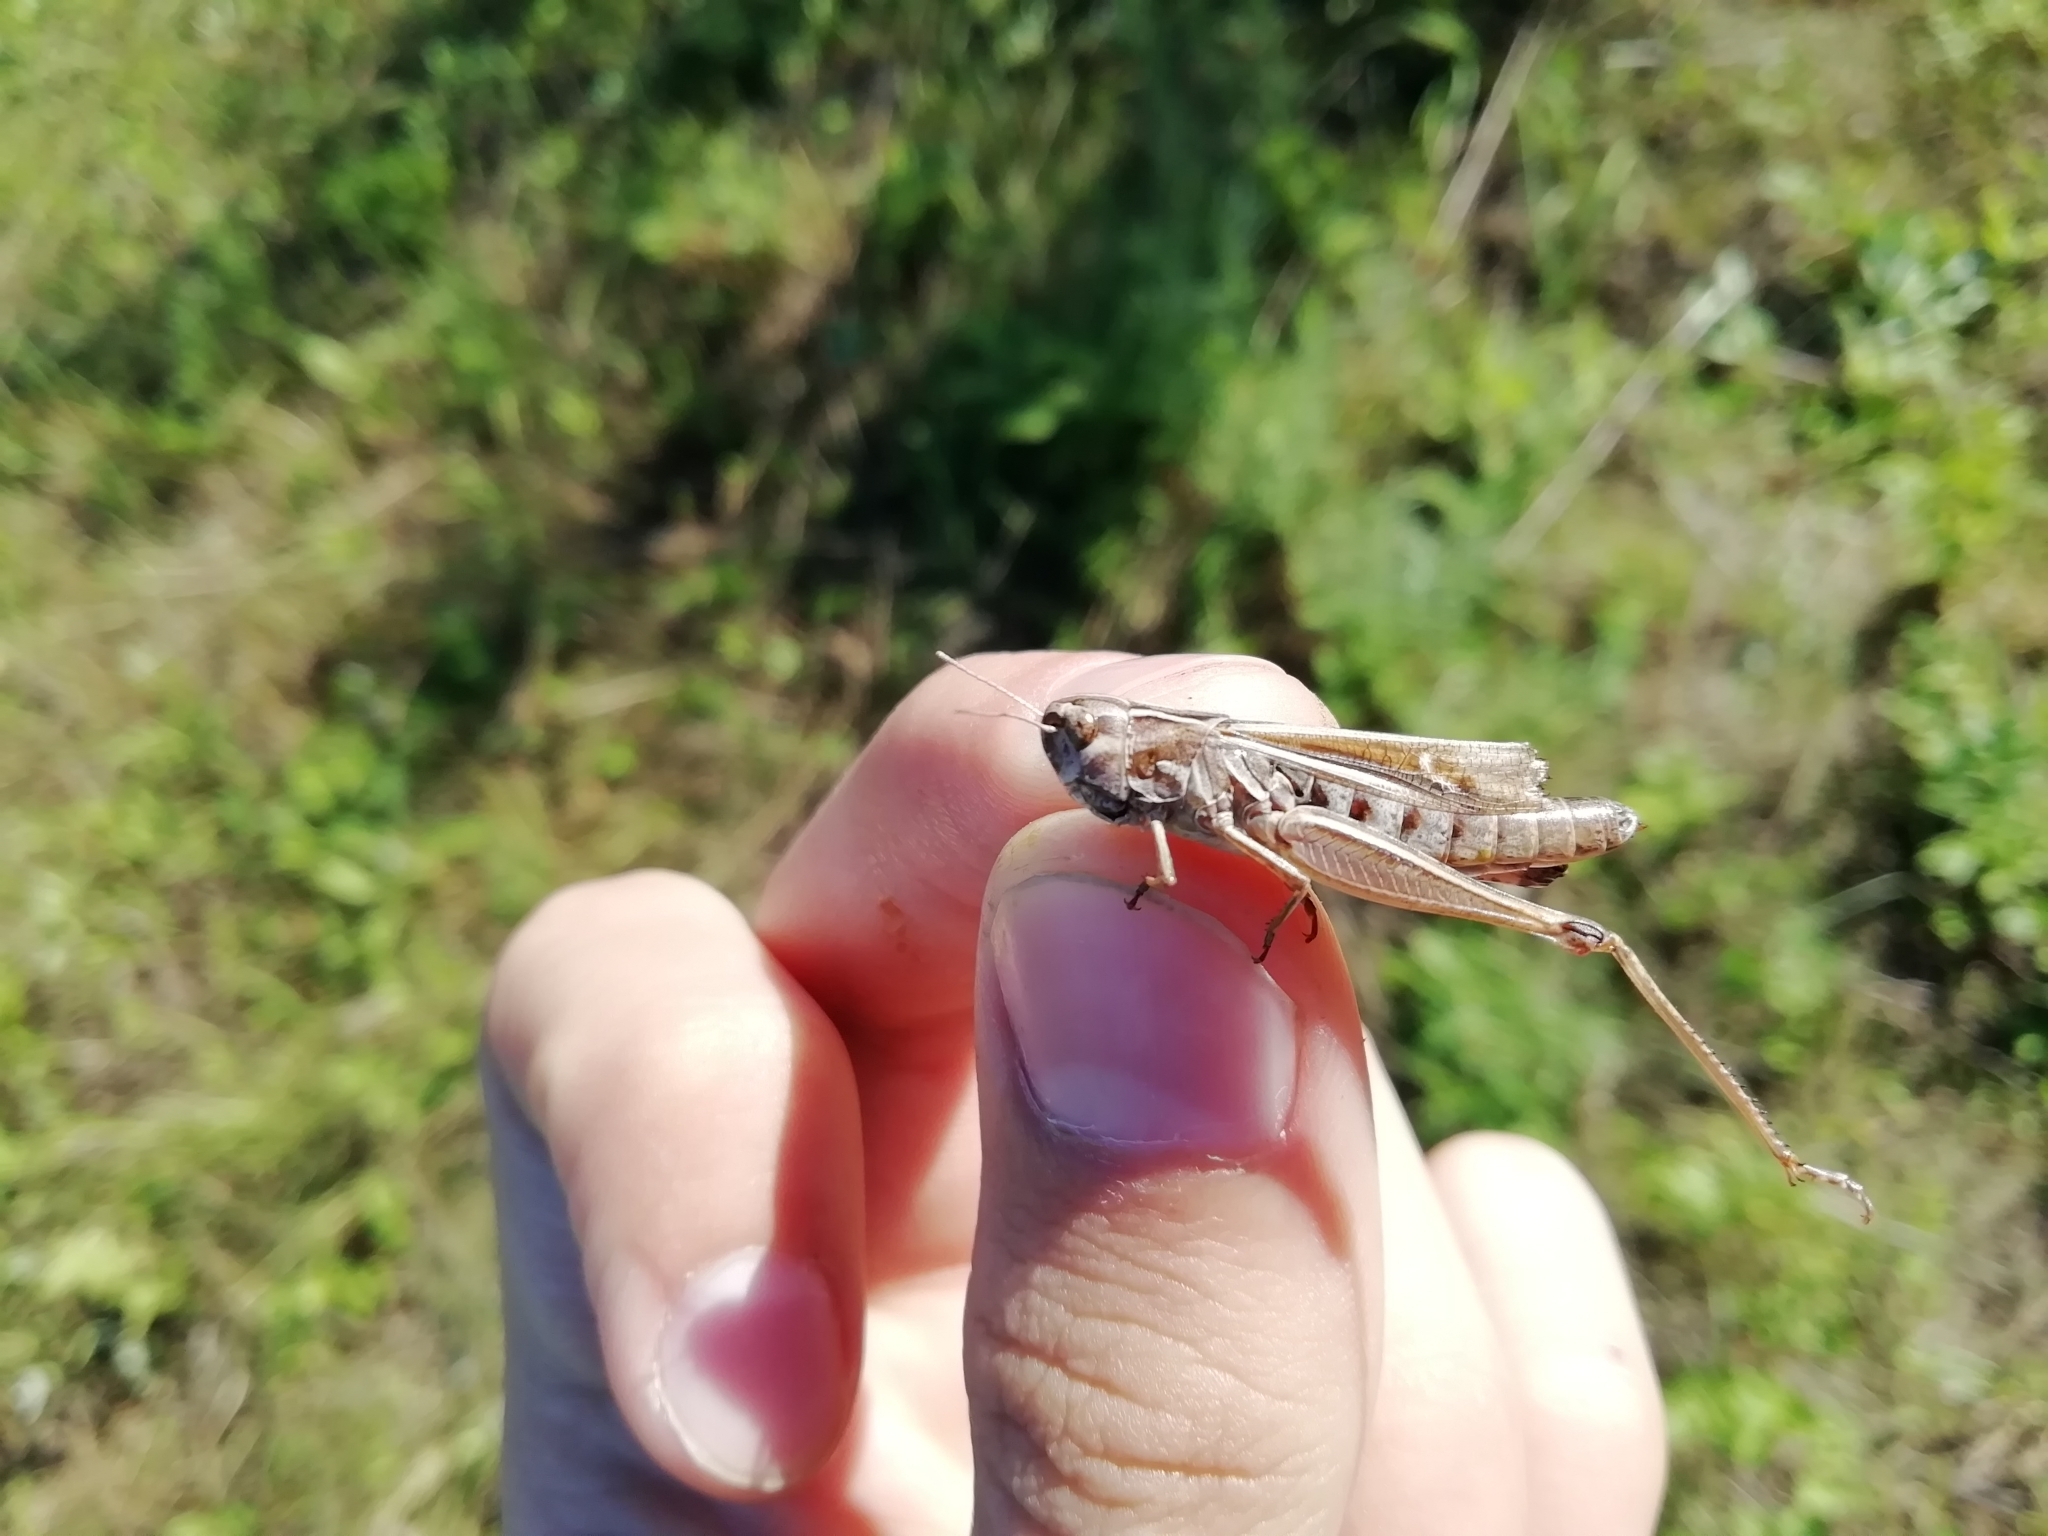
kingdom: Animalia
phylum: Arthropoda
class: Insecta
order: Orthoptera
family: Acrididae
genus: Stenobothrus
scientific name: Stenobothrus lineatus
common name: Stripe-winged grasshopper
